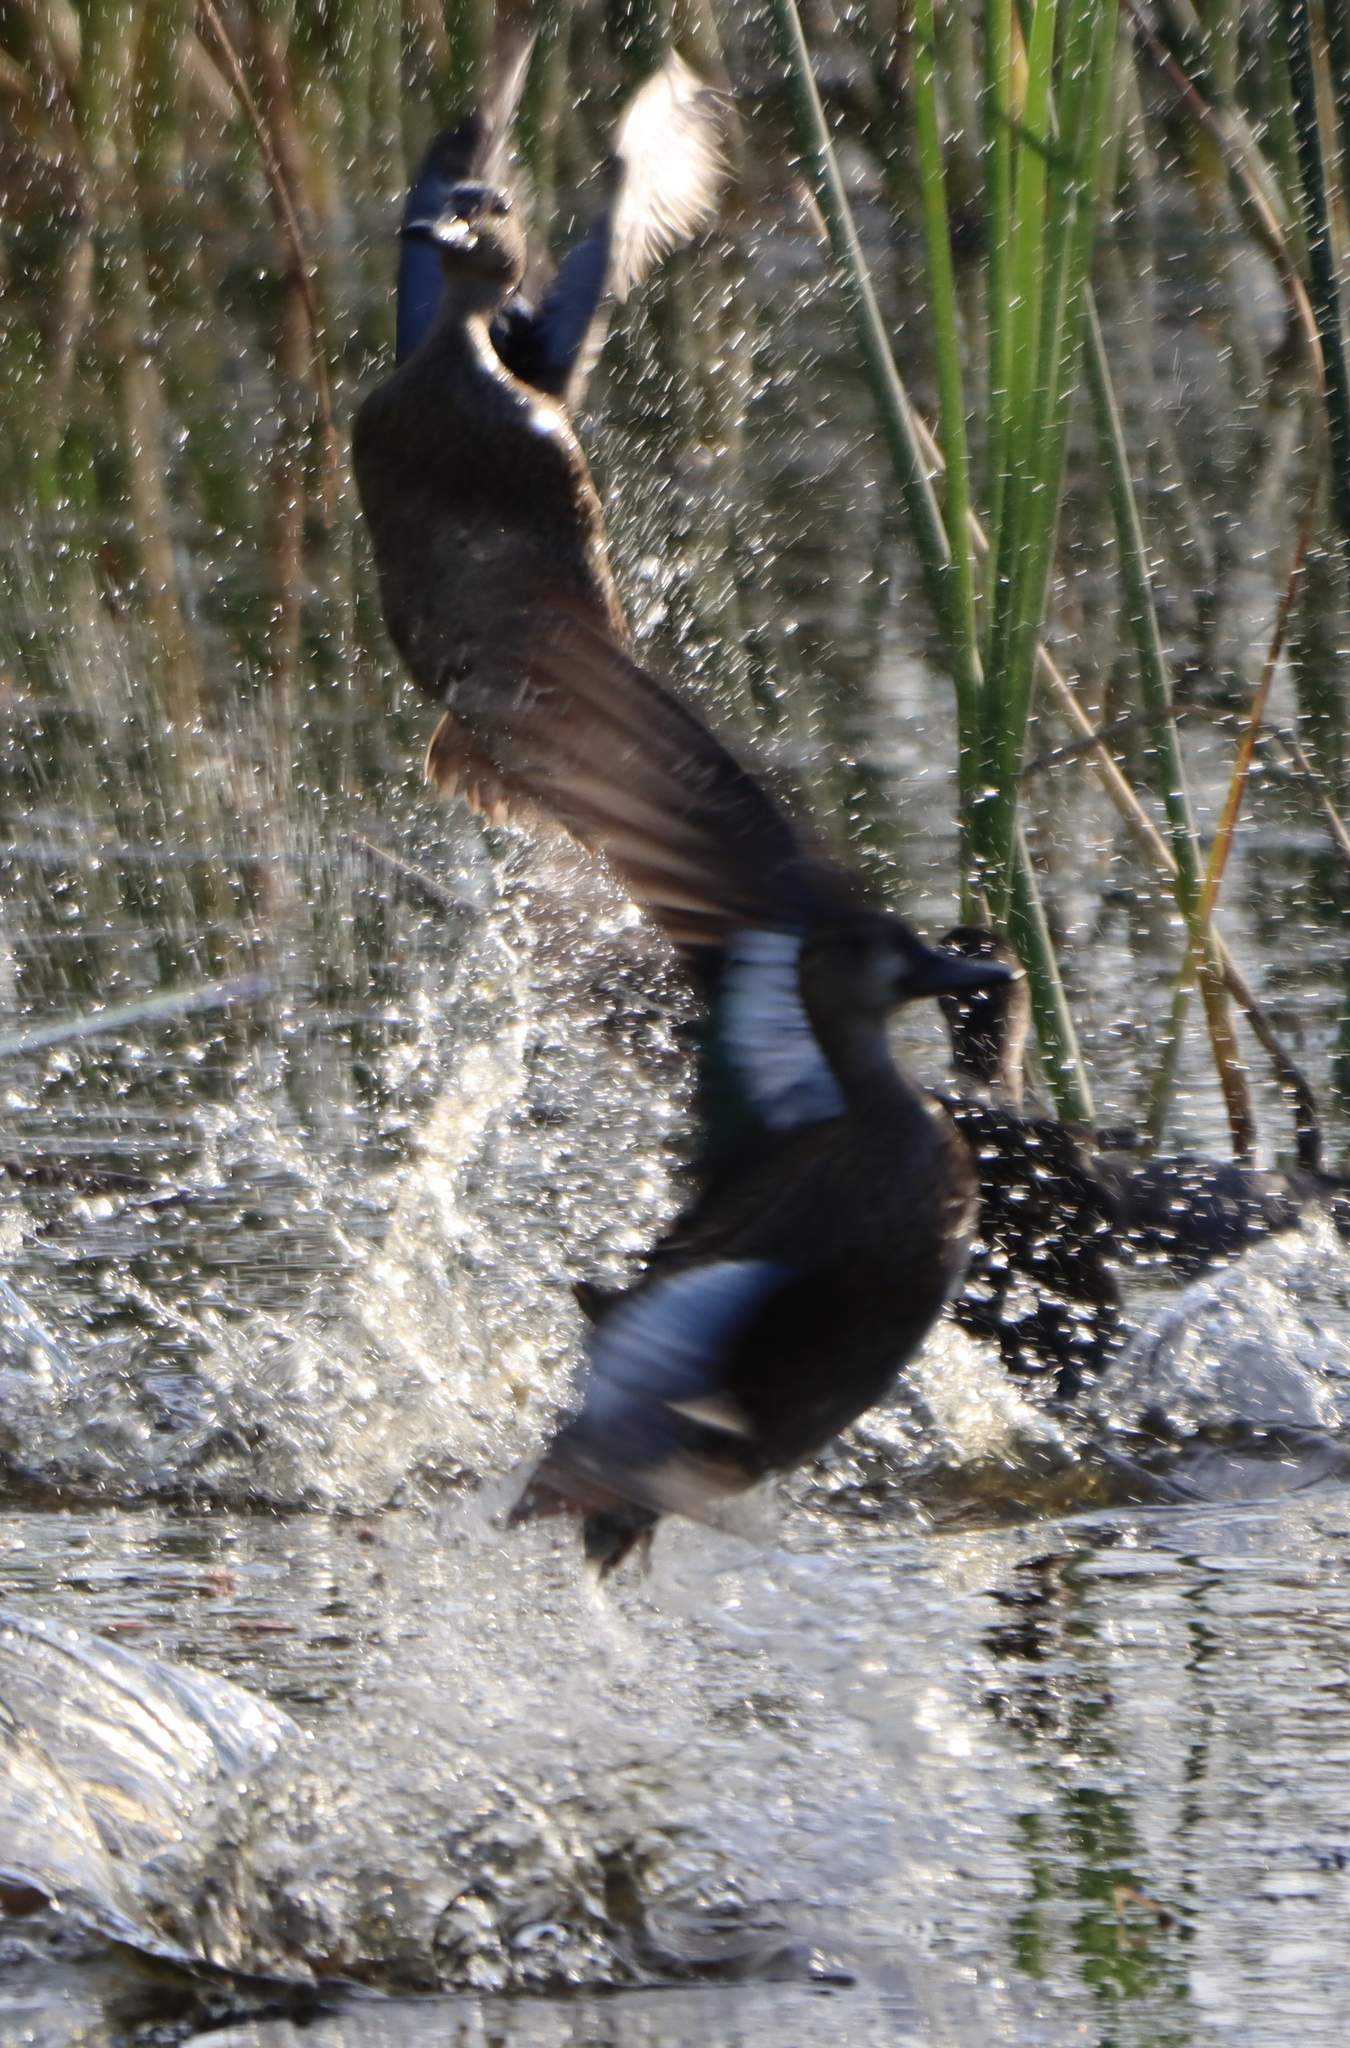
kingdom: Animalia
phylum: Chordata
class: Aves
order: Anseriformes
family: Anatidae
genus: Spatula
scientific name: Spatula discors
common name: Blue-winged teal
